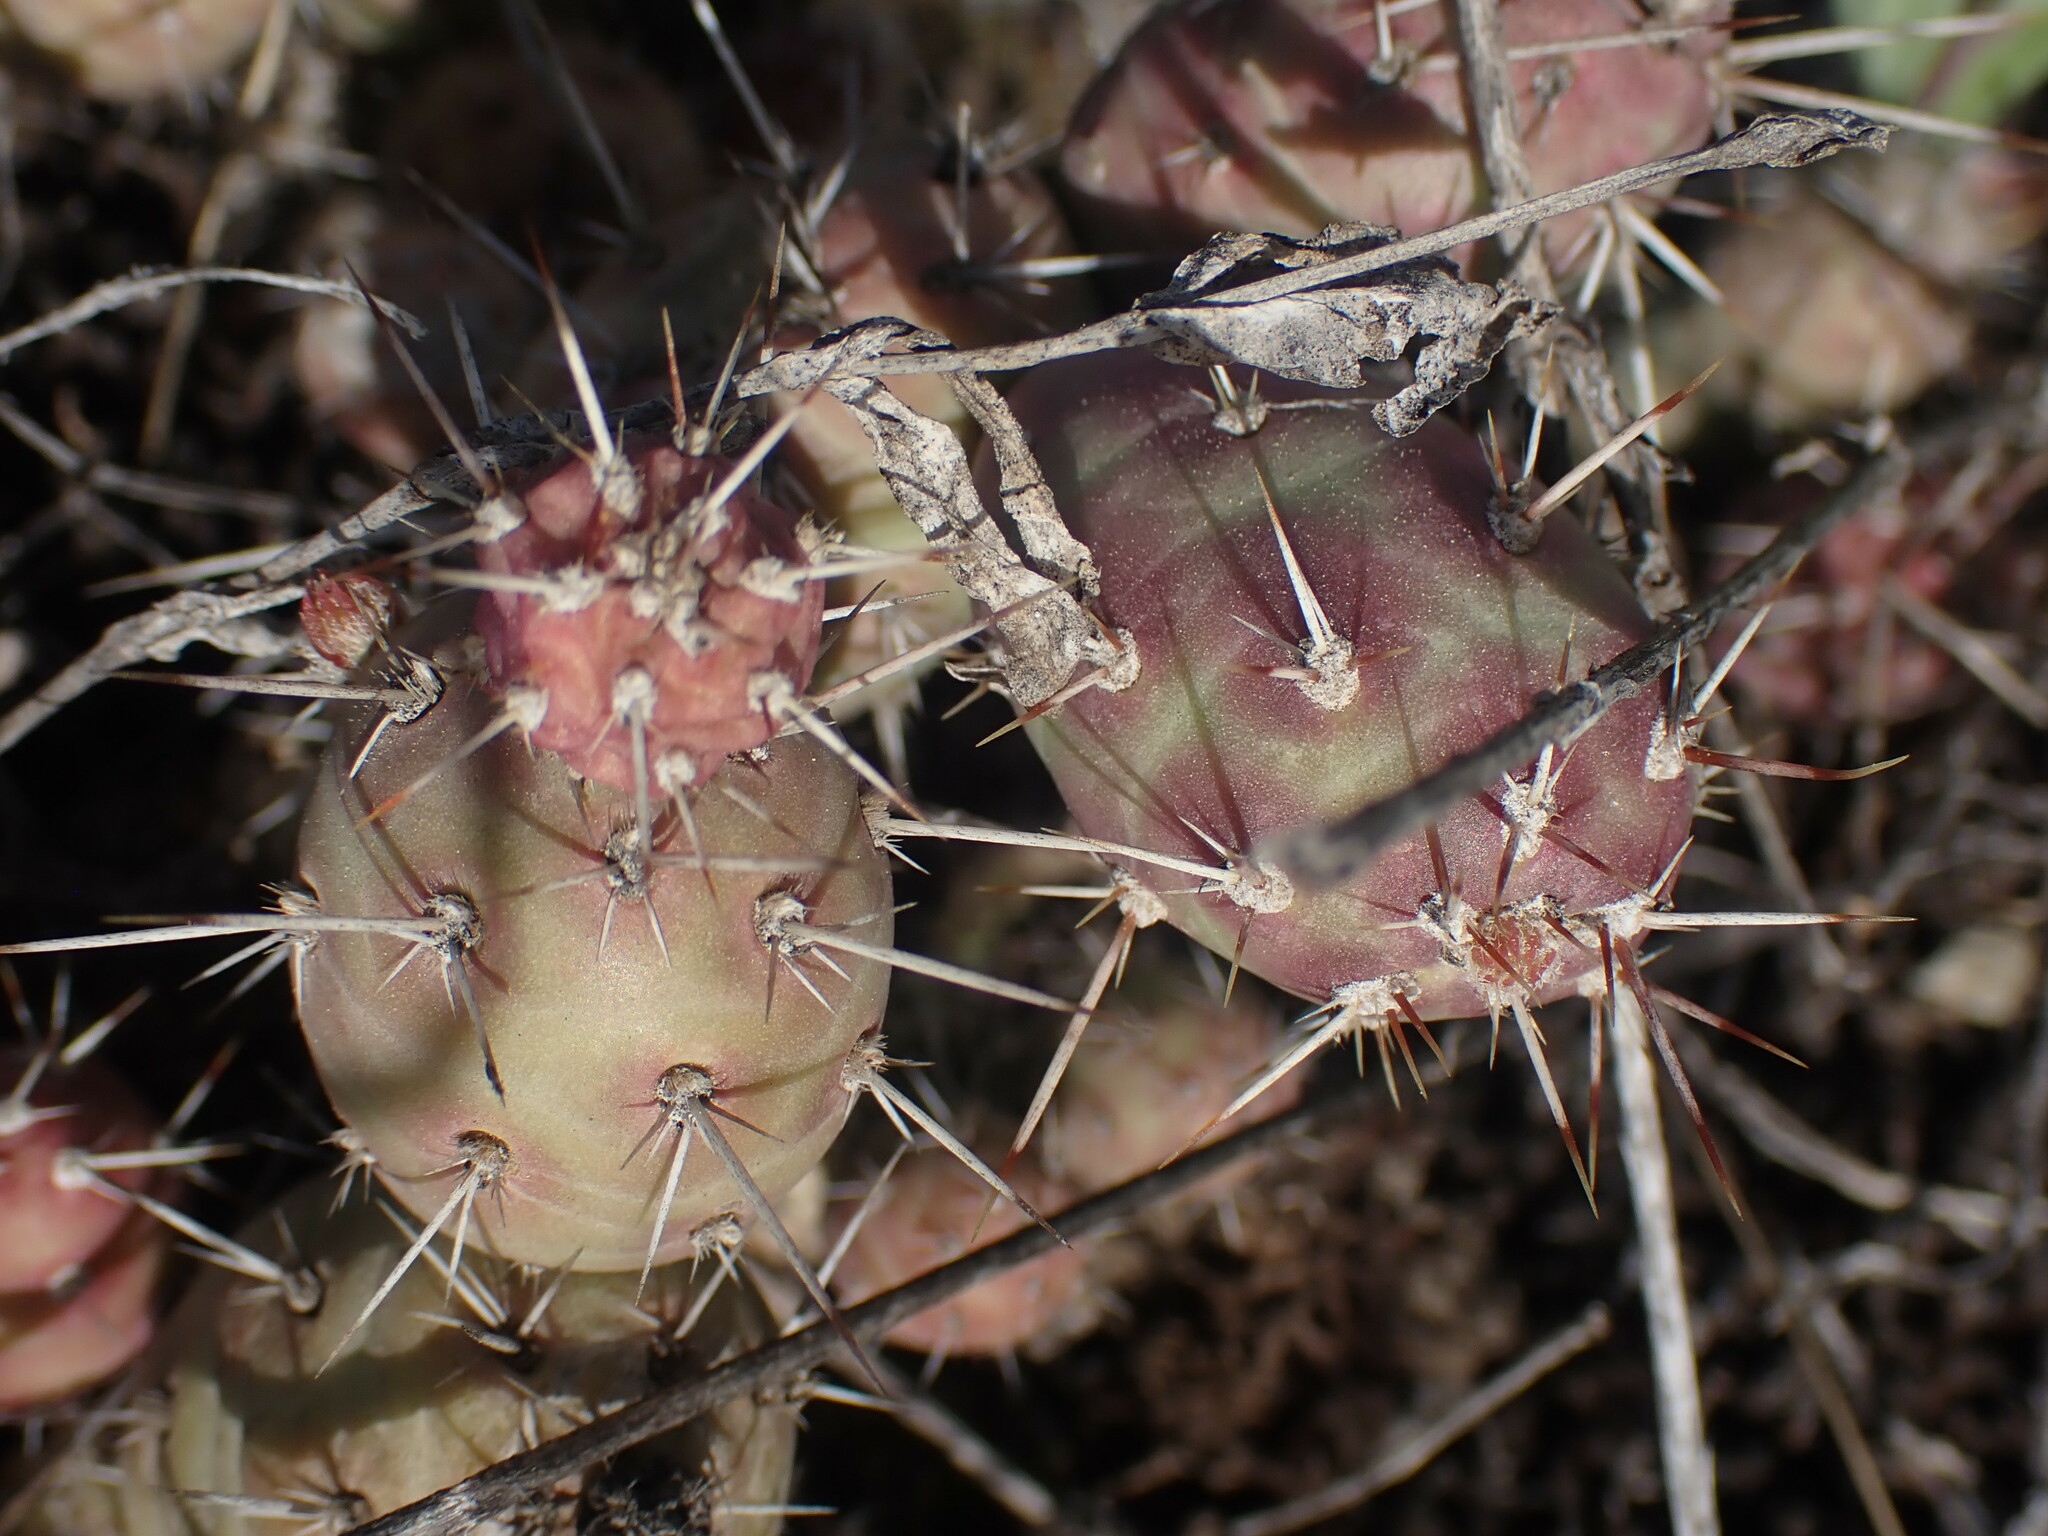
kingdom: Plantae
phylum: Tracheophyta
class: Magnoliopsida
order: Caryophyllales
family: Cactaceae
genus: Opuntia
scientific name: Opuntia fragilis
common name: Brittle cactus
